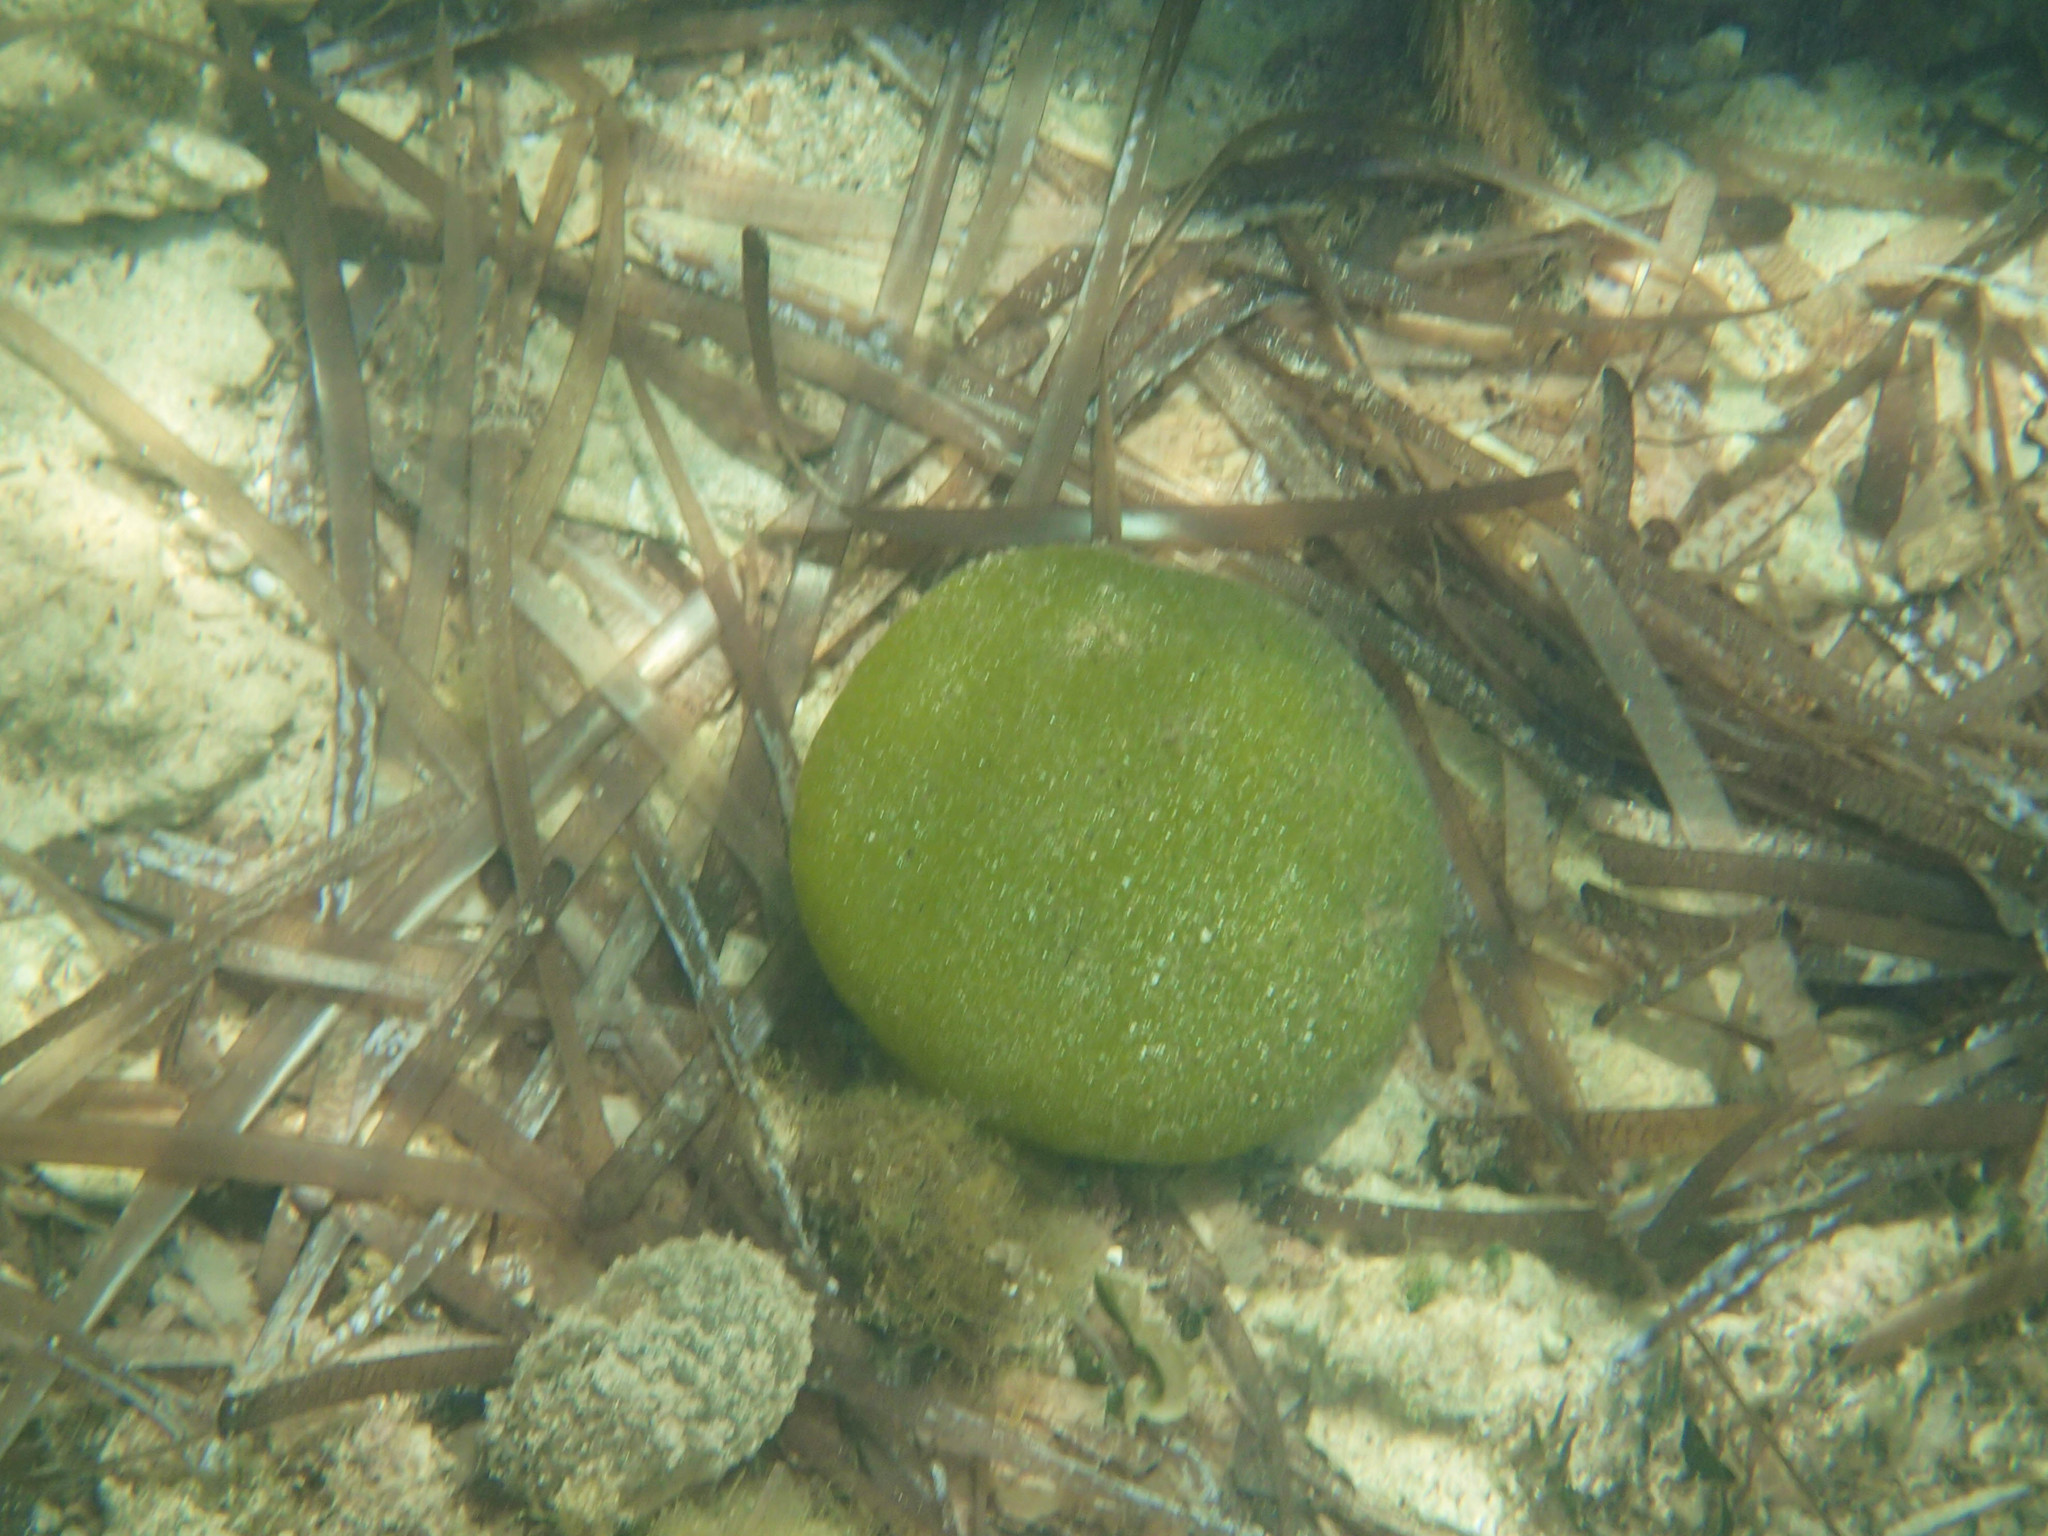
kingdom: Plantae
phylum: Chlorophyta
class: Ulvophyceae
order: Bryopsidales
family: Codiaceae
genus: Codium
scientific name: Codium bursa
